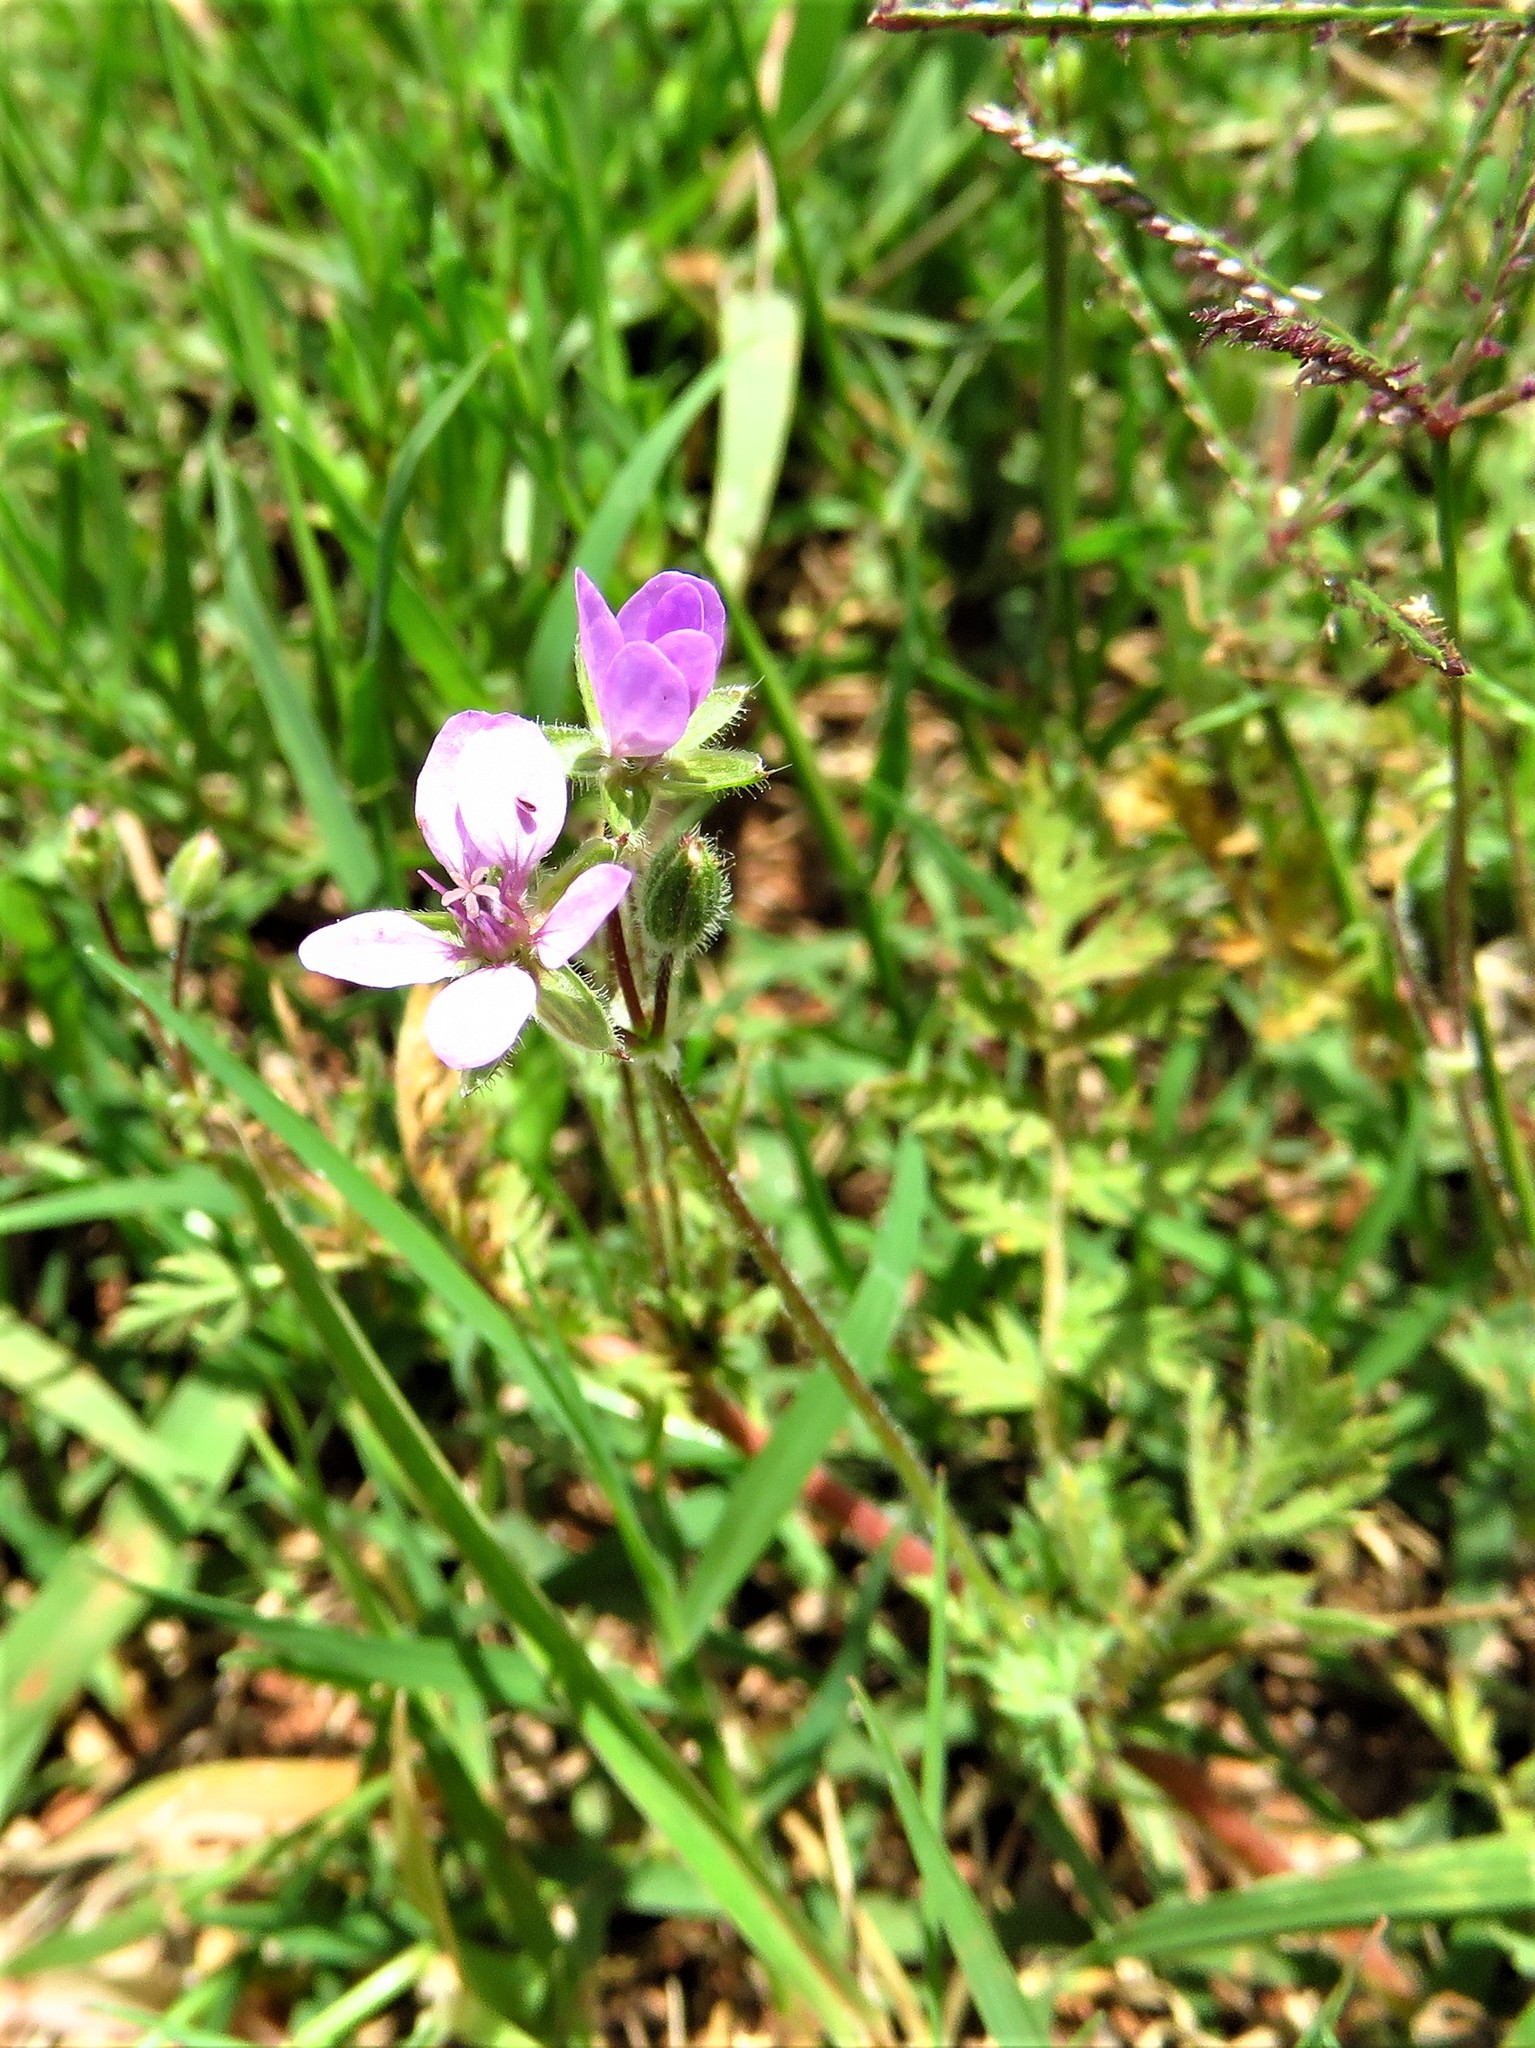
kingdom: Plantae
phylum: Tracheophyta
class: Magnoliopsida
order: Geraniales
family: Geraniaceae
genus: Erodium
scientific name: Erodium cicutarium
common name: Common stork's-bill
